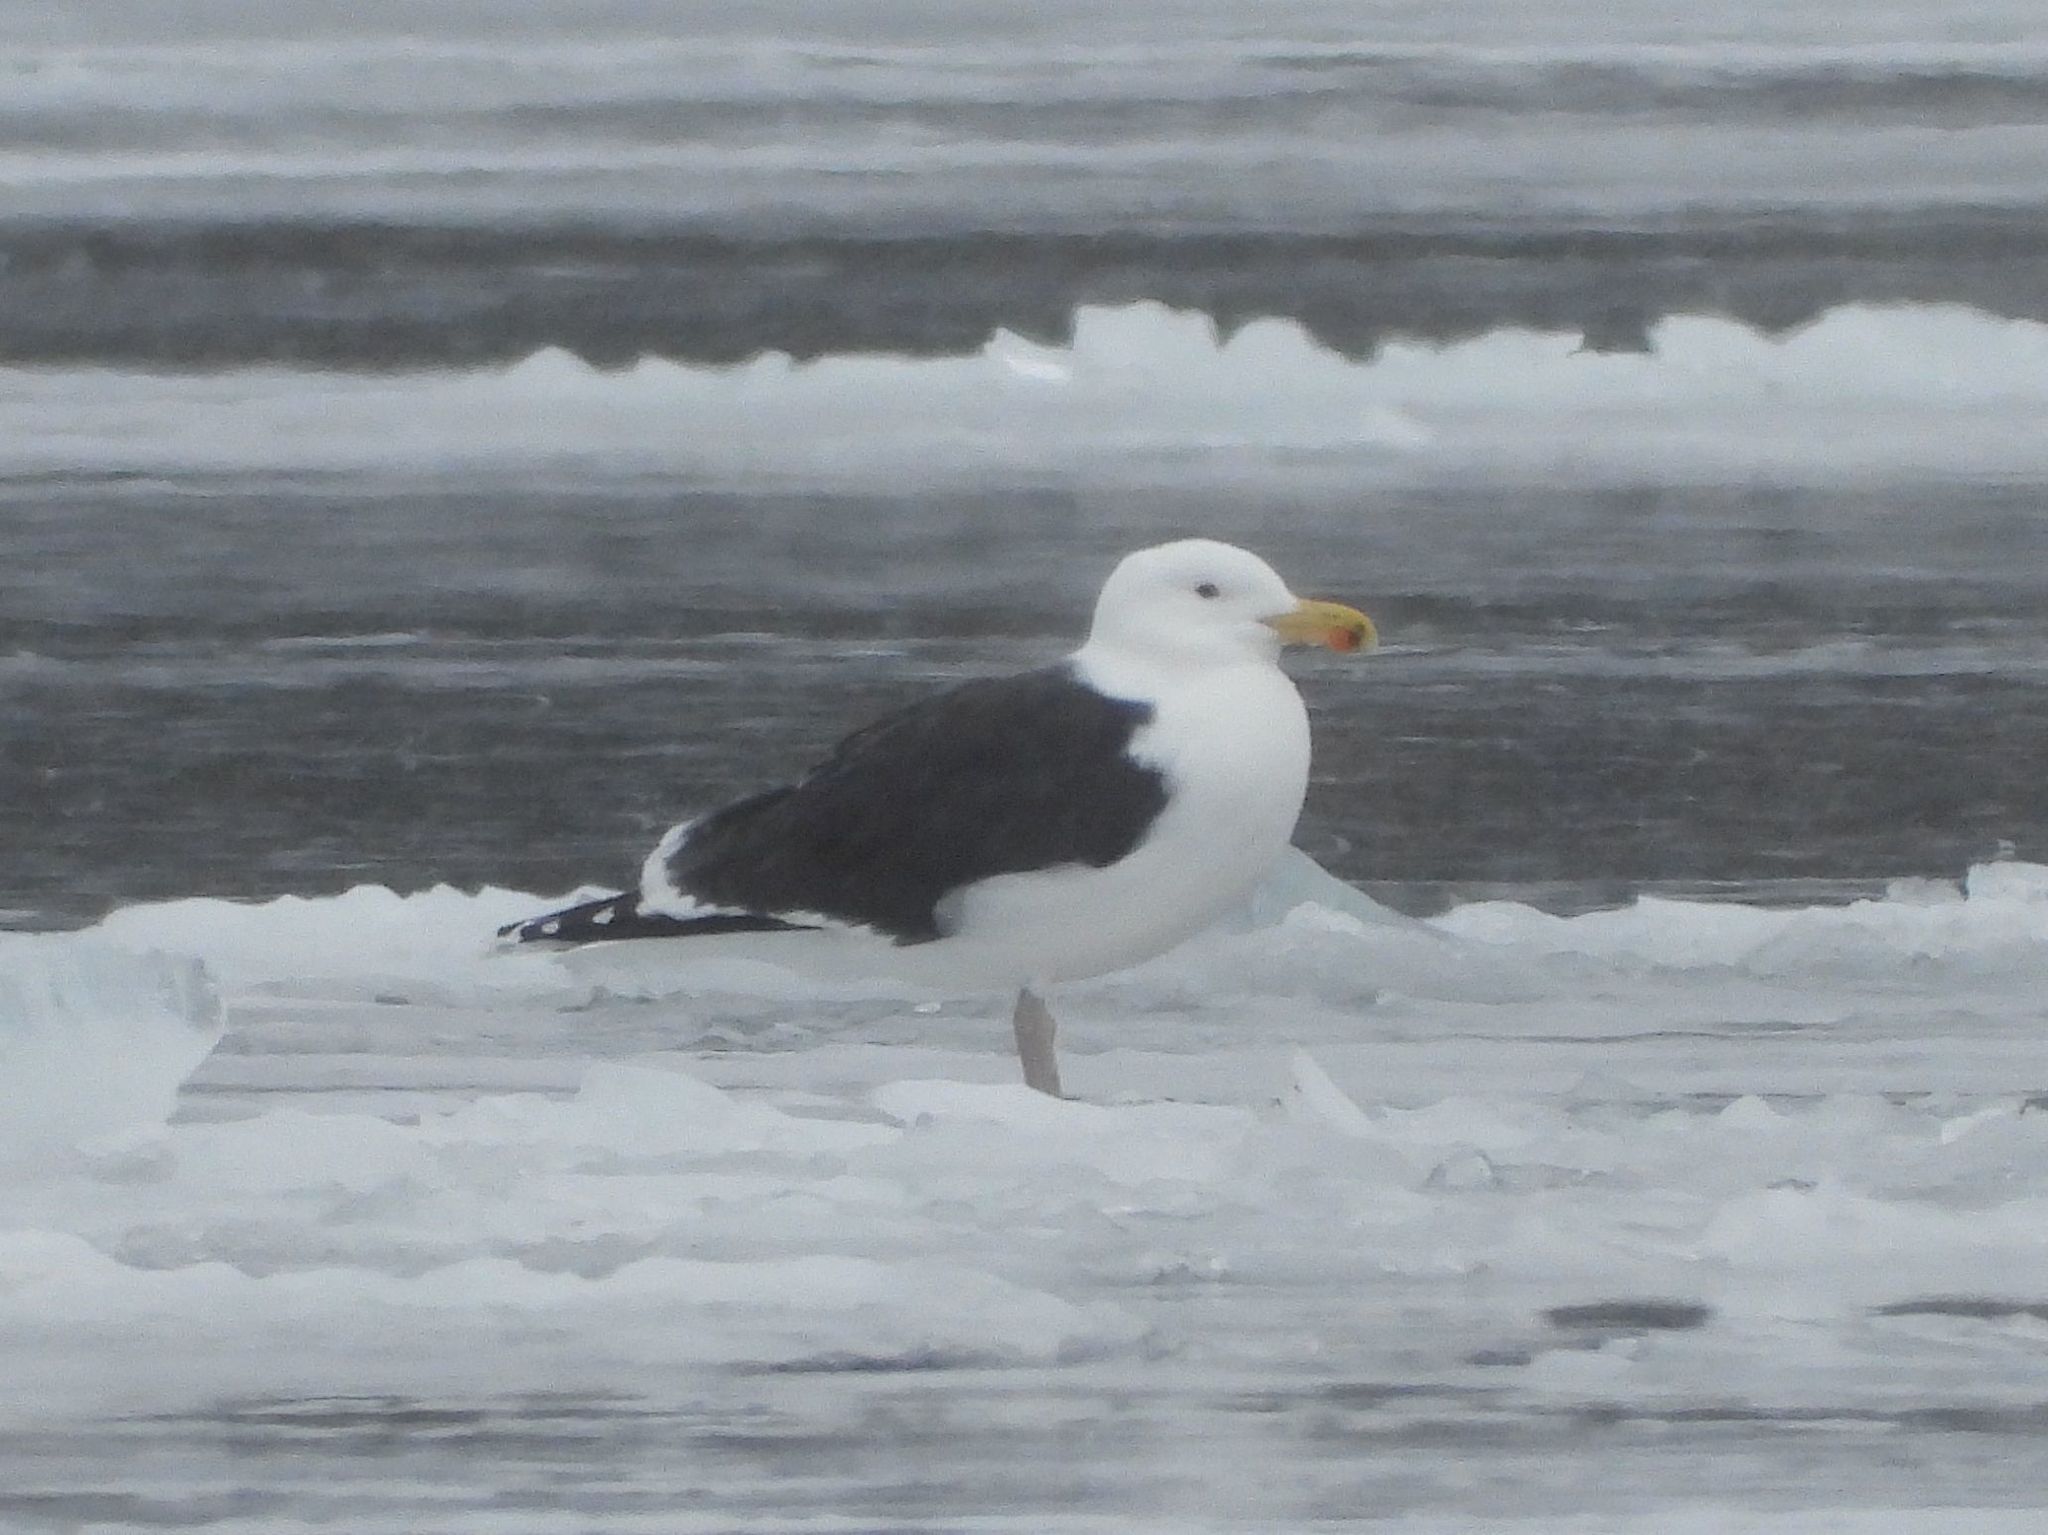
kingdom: Animalia
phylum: Chordata
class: Aves
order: Charadriiformes
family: Laridae
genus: Larus
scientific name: Larus marinus
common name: Great black-backed gull
